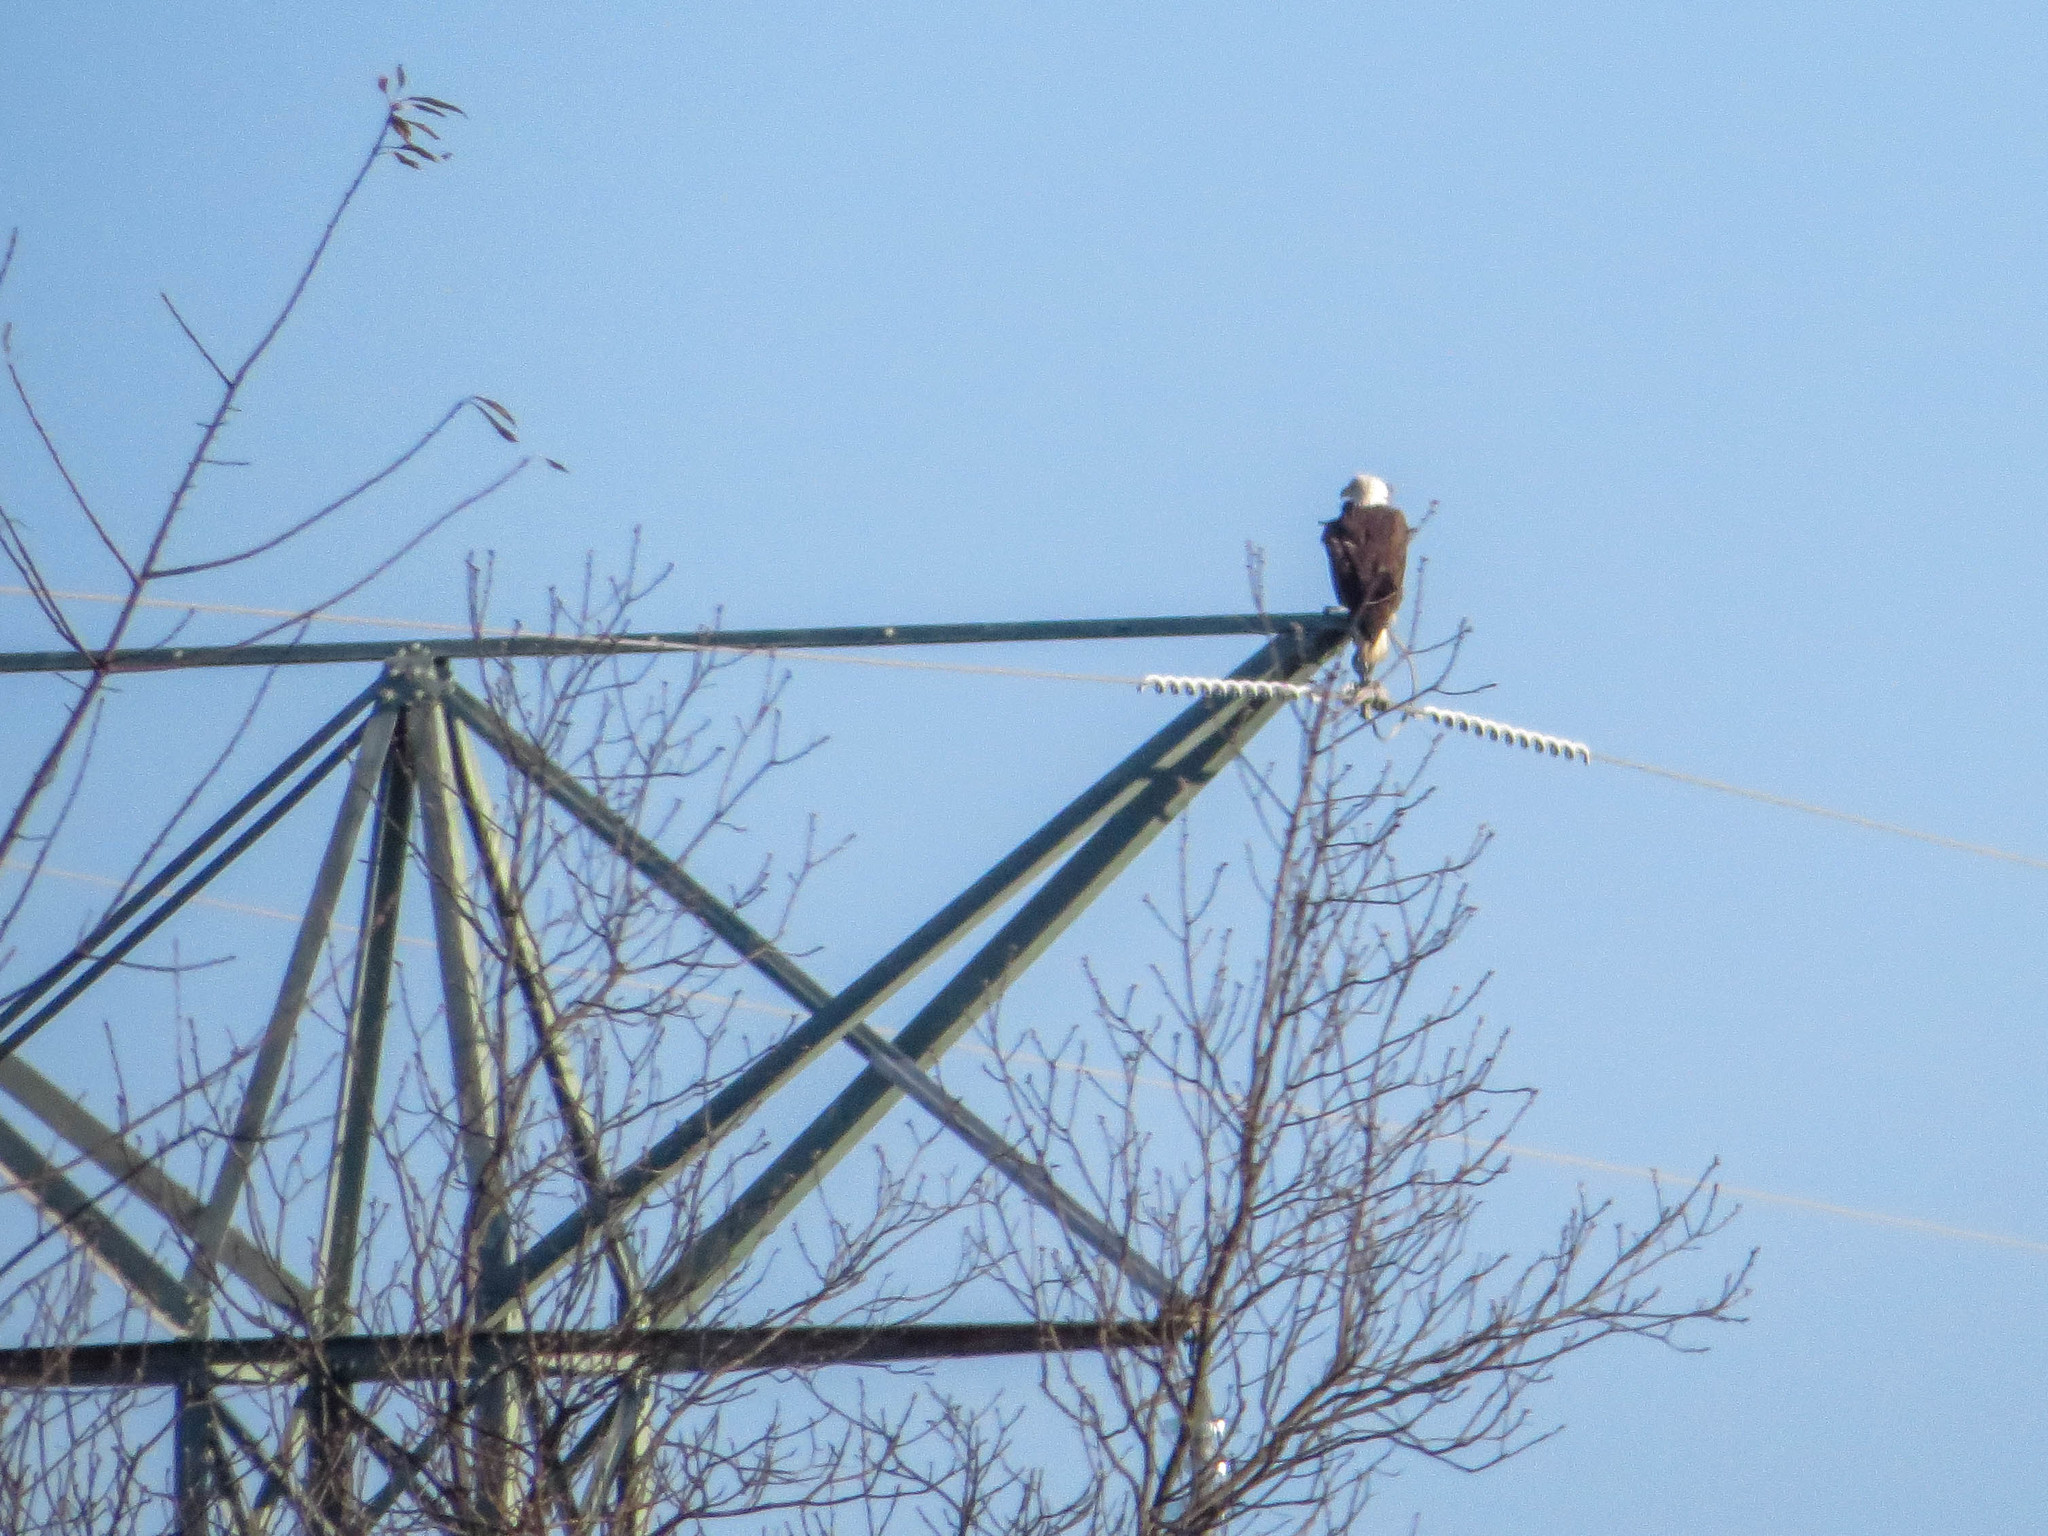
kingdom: Animalia
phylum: Chordata
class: Aves
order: Accipitriformes
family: Accipitridae
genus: Haliaeetus
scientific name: Haliaeetus leucocephalus
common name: Bald eagle
